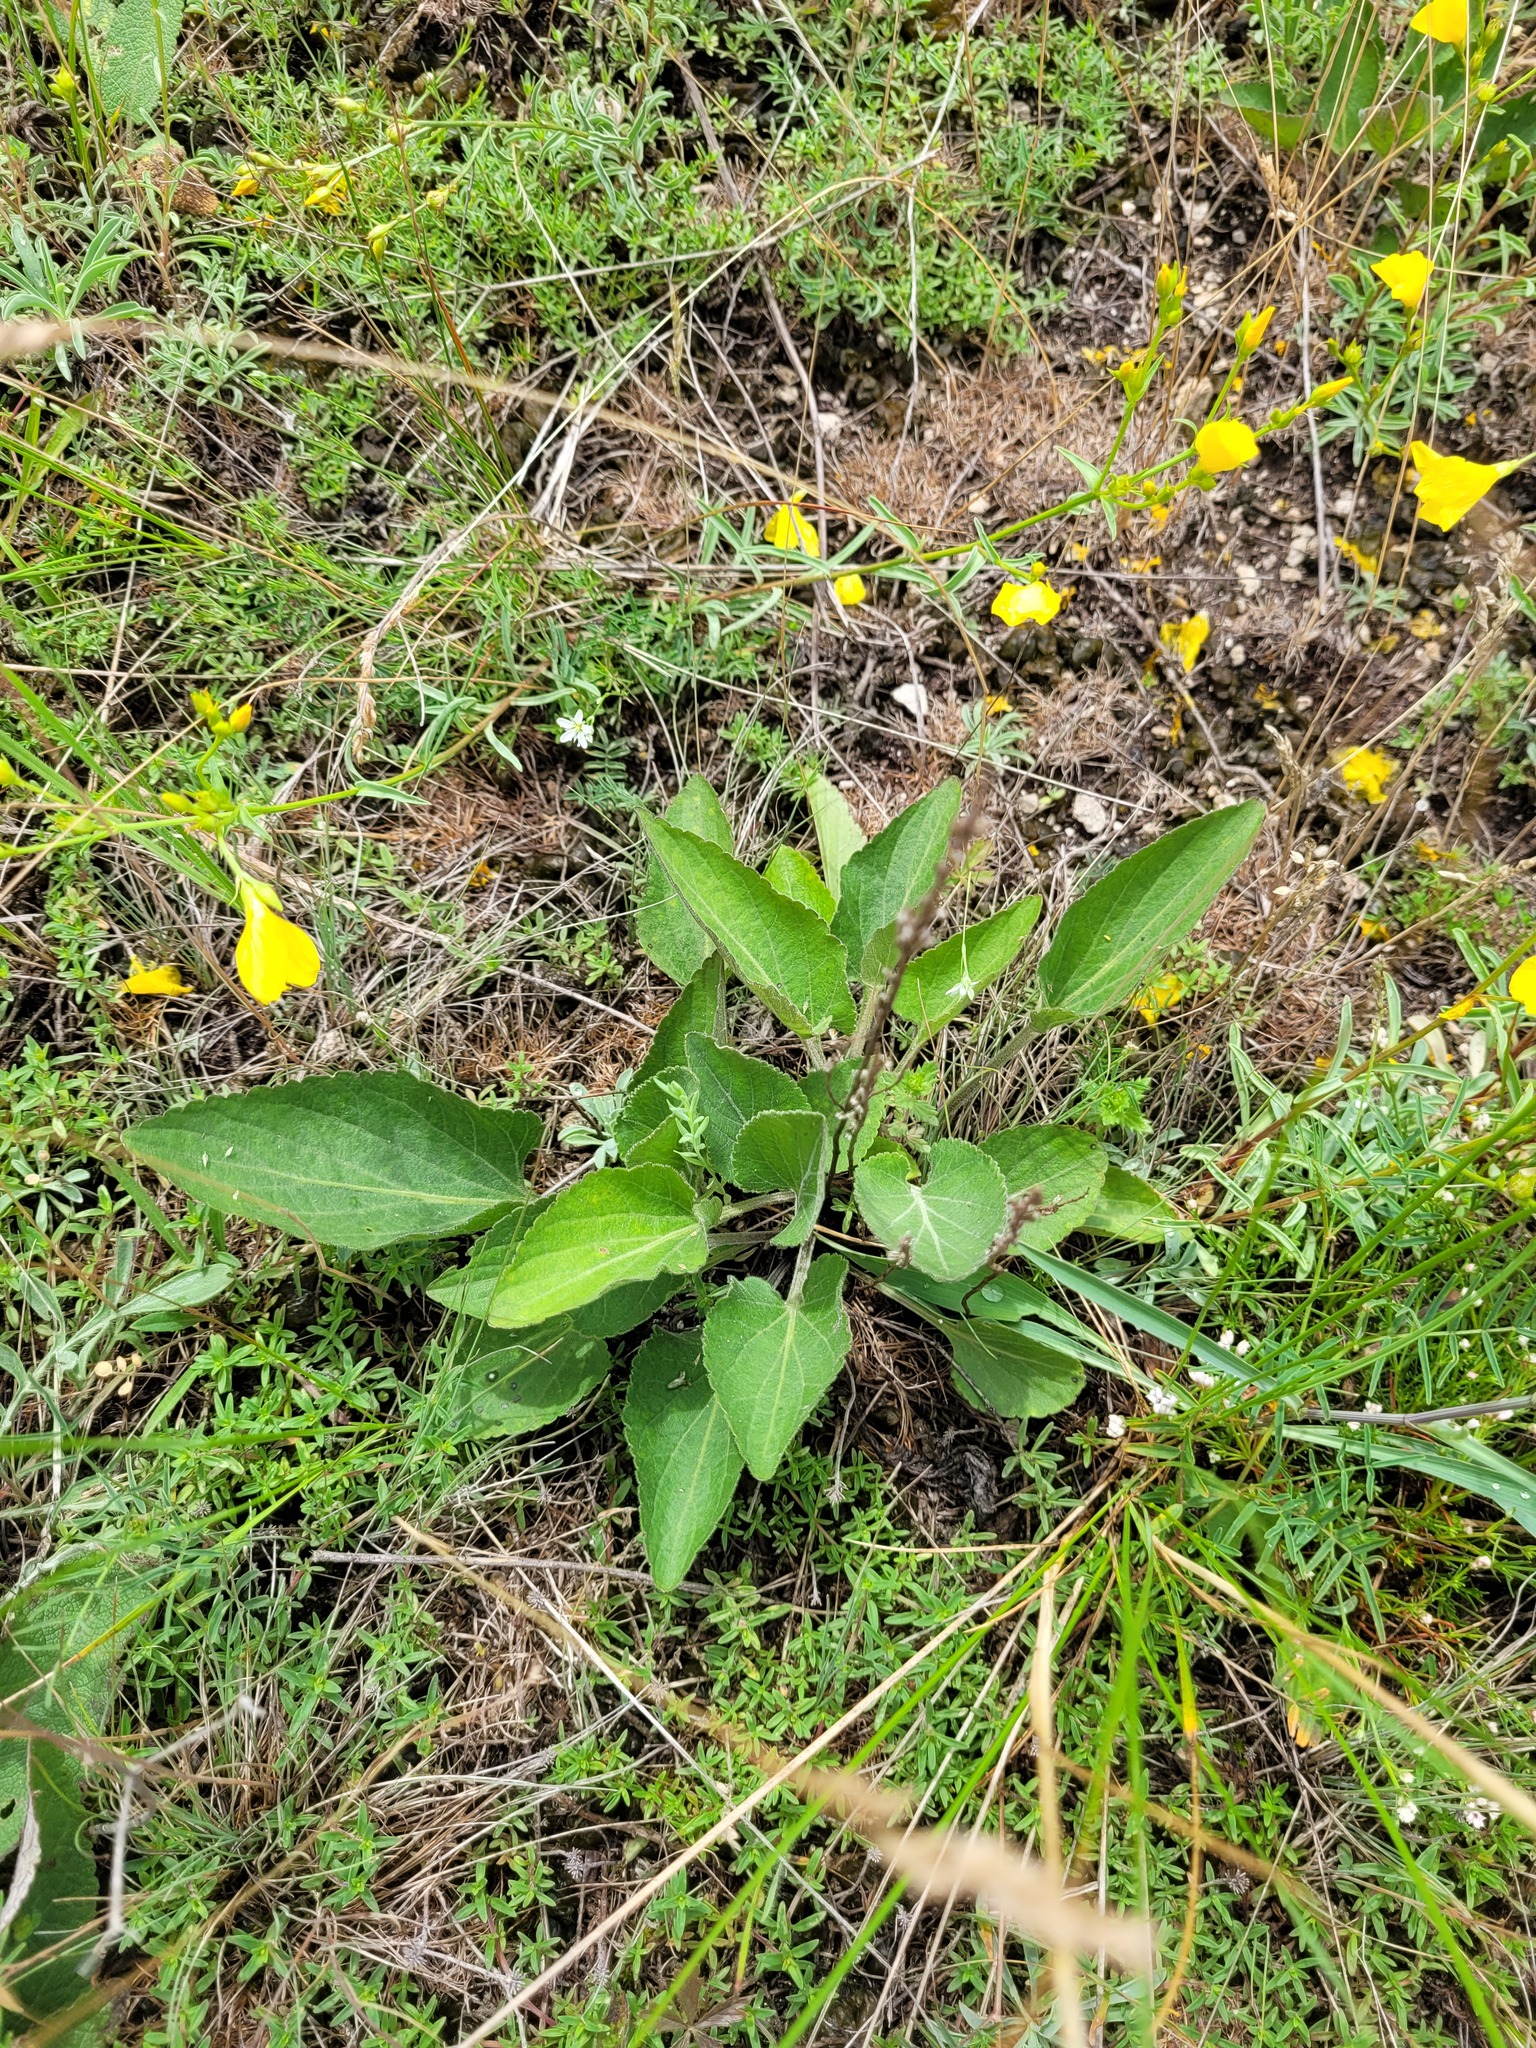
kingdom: Plantae
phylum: Tracheophyta
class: Magnoliopsida
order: Malpighiales
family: Violaceae
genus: Viola
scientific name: Viola ambigua
